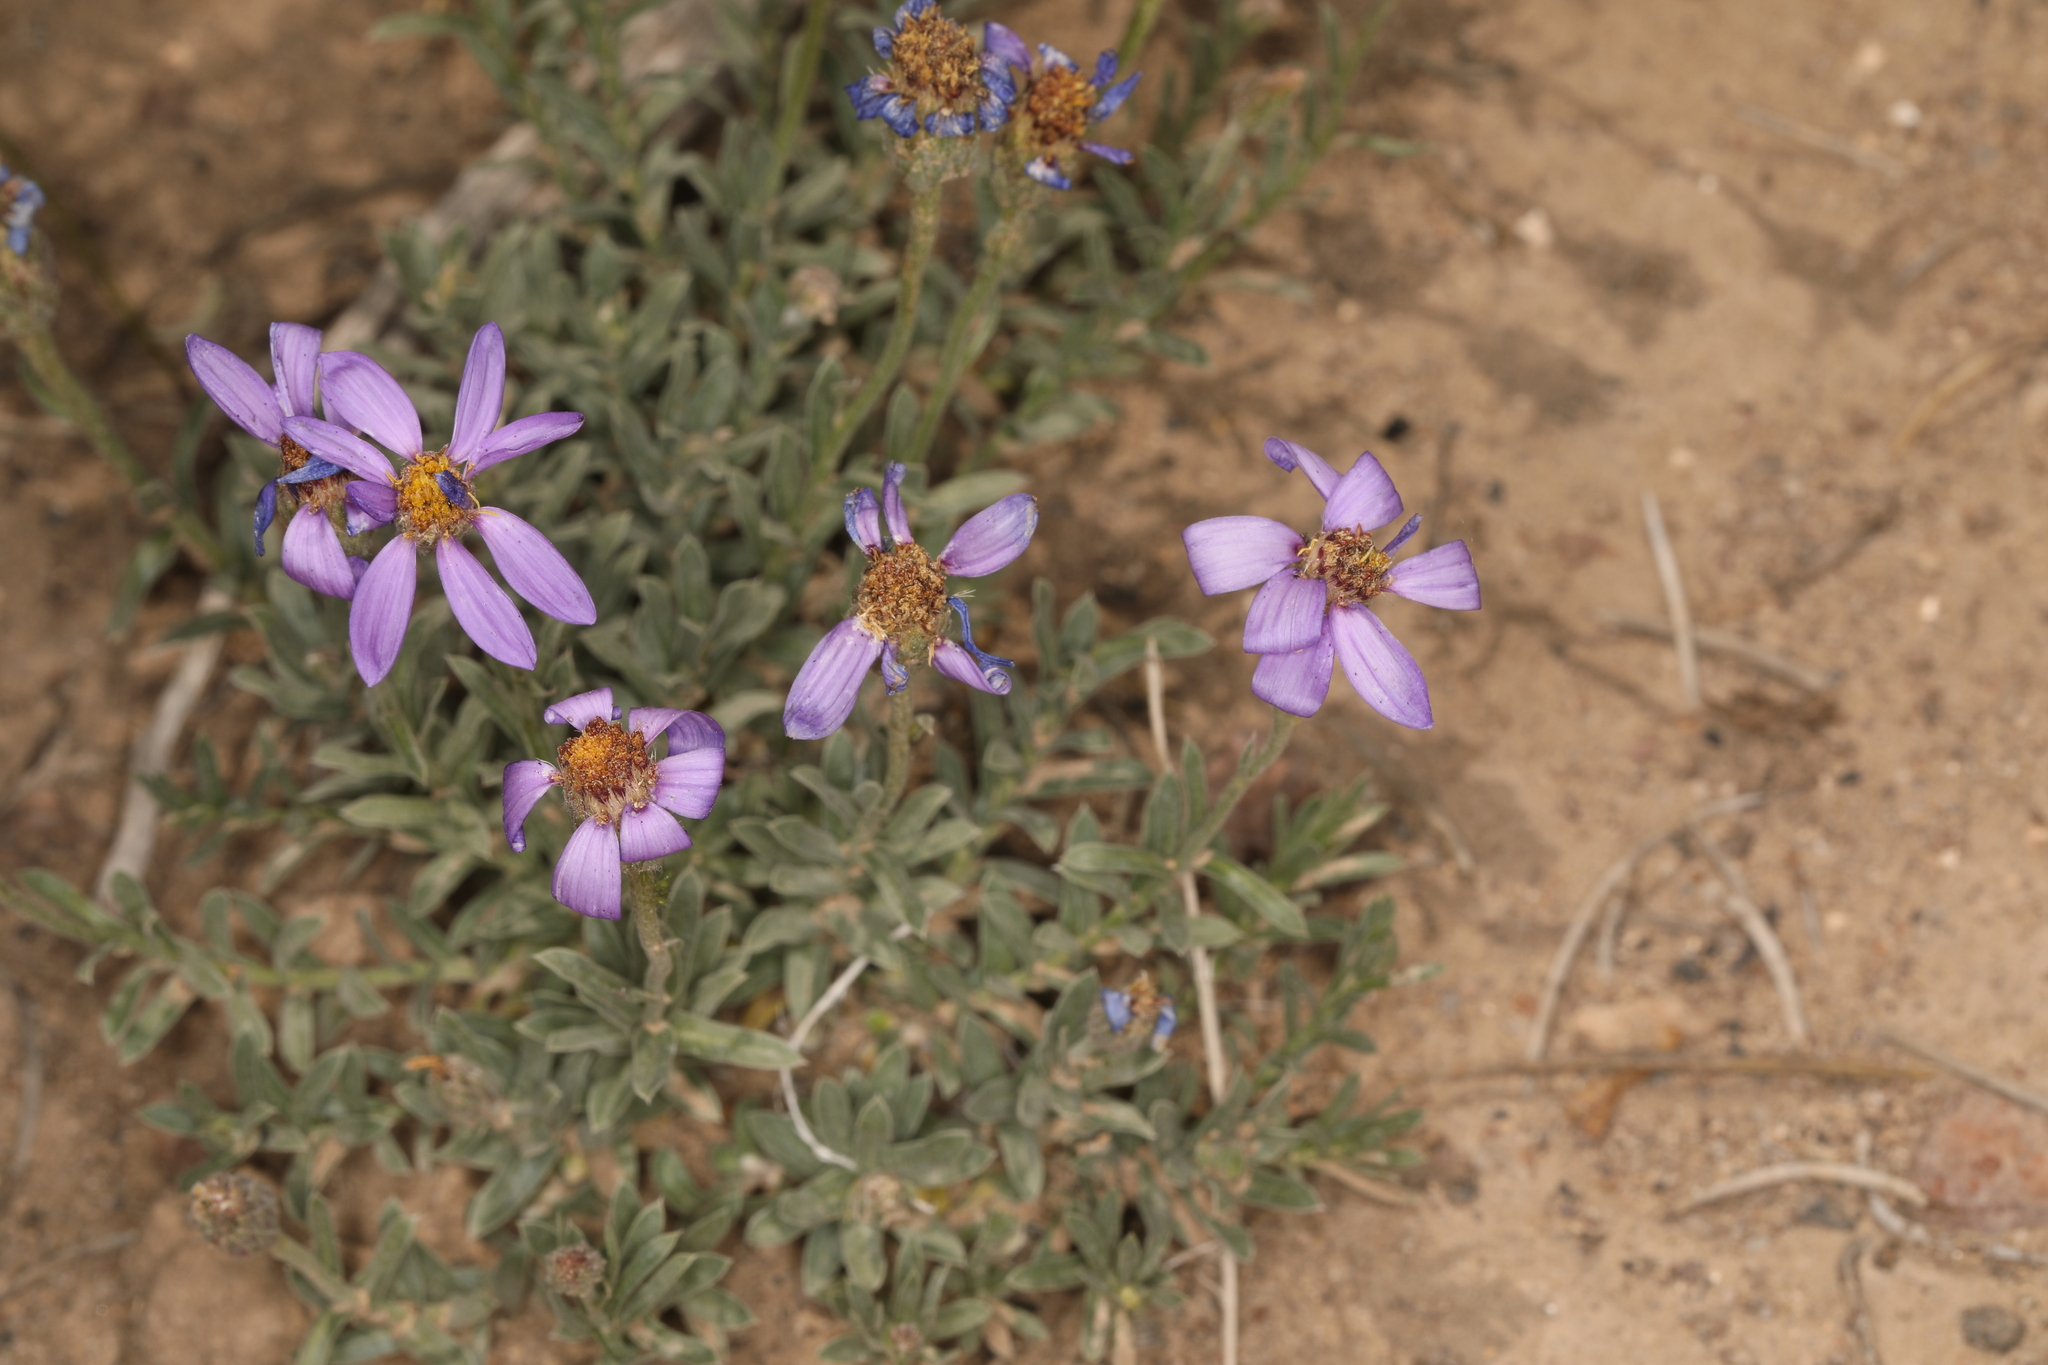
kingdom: Plantae
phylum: Tracheophyta
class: Magnoliopsida
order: Asterales
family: Asteraceae
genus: Ionactis
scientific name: Ionactis alpina
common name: Crag aster
